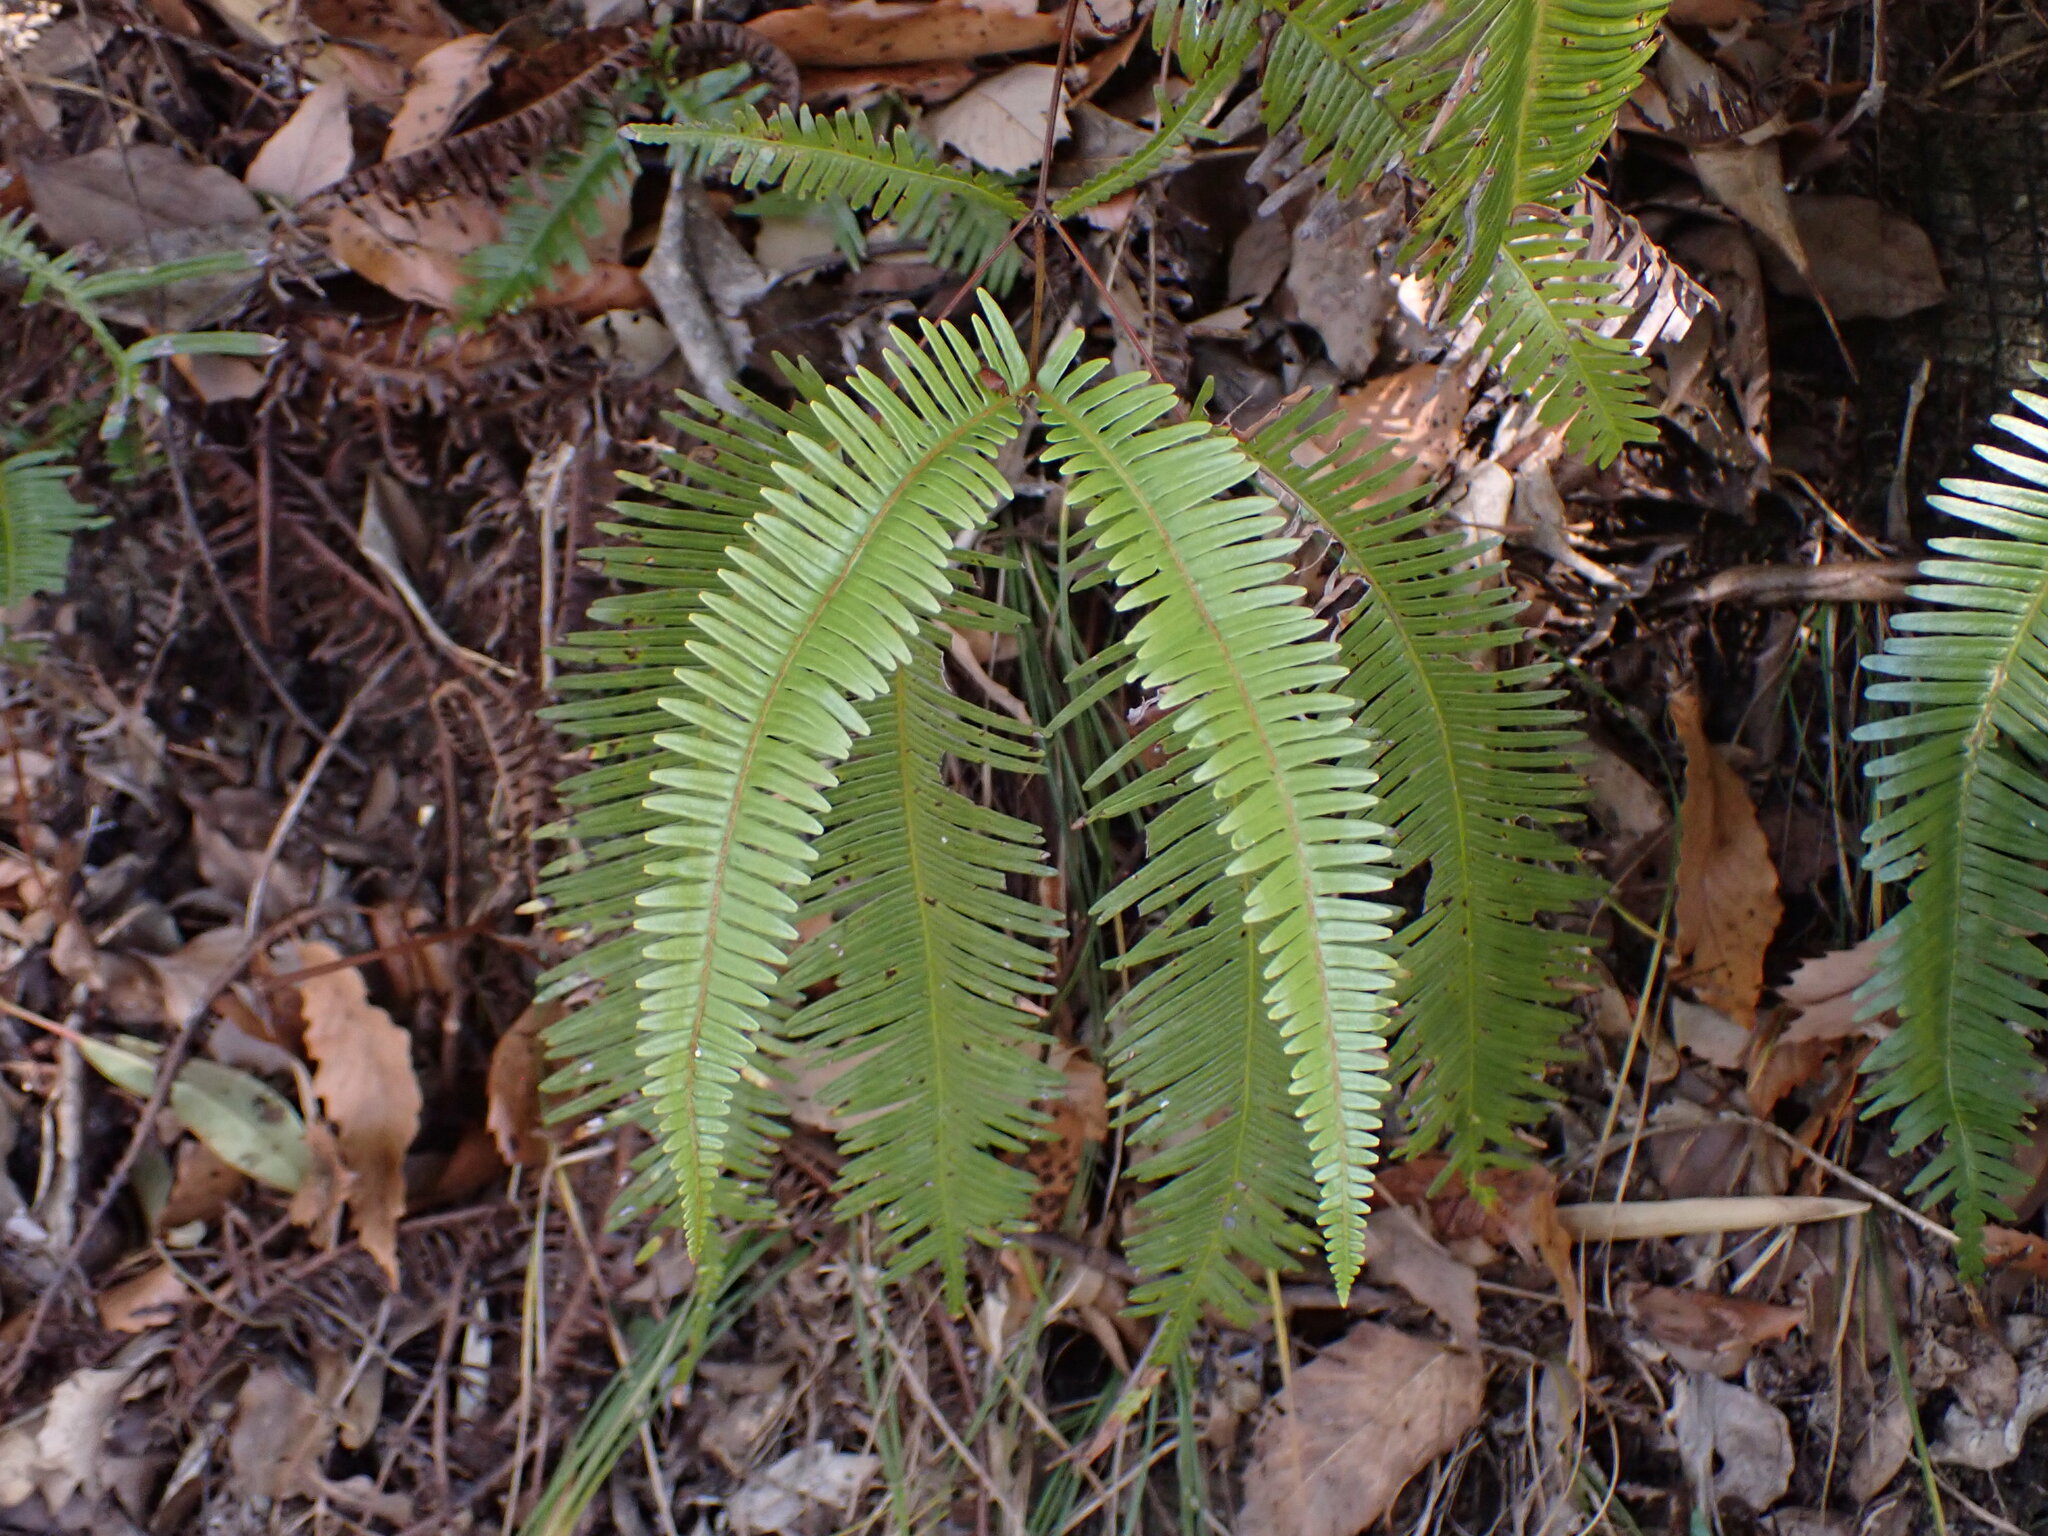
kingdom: Plantae
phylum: Tracheophyta
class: Polypodiopsida
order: Gleicheniales
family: Gleicheniaceae
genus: Dicranopteris
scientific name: Dicranopteris linearis
